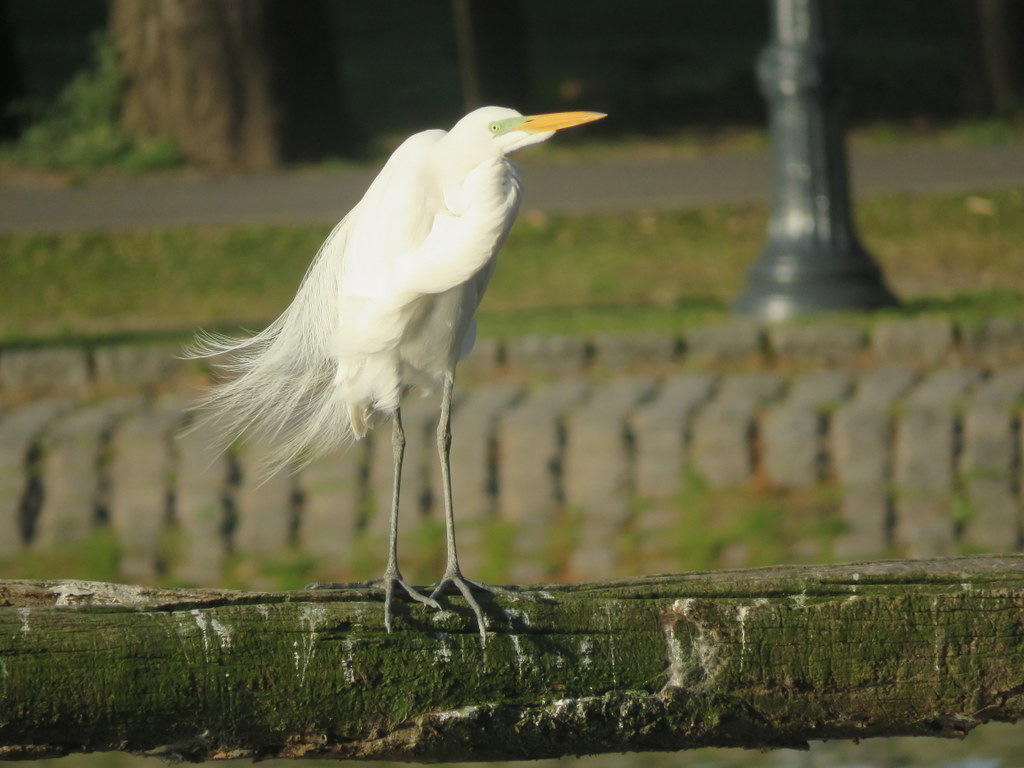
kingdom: Animalia
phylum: Chordata
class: Aves
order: Pelecaniformes
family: Ardeidae
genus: Ardea
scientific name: Ardea alba
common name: Great egret
